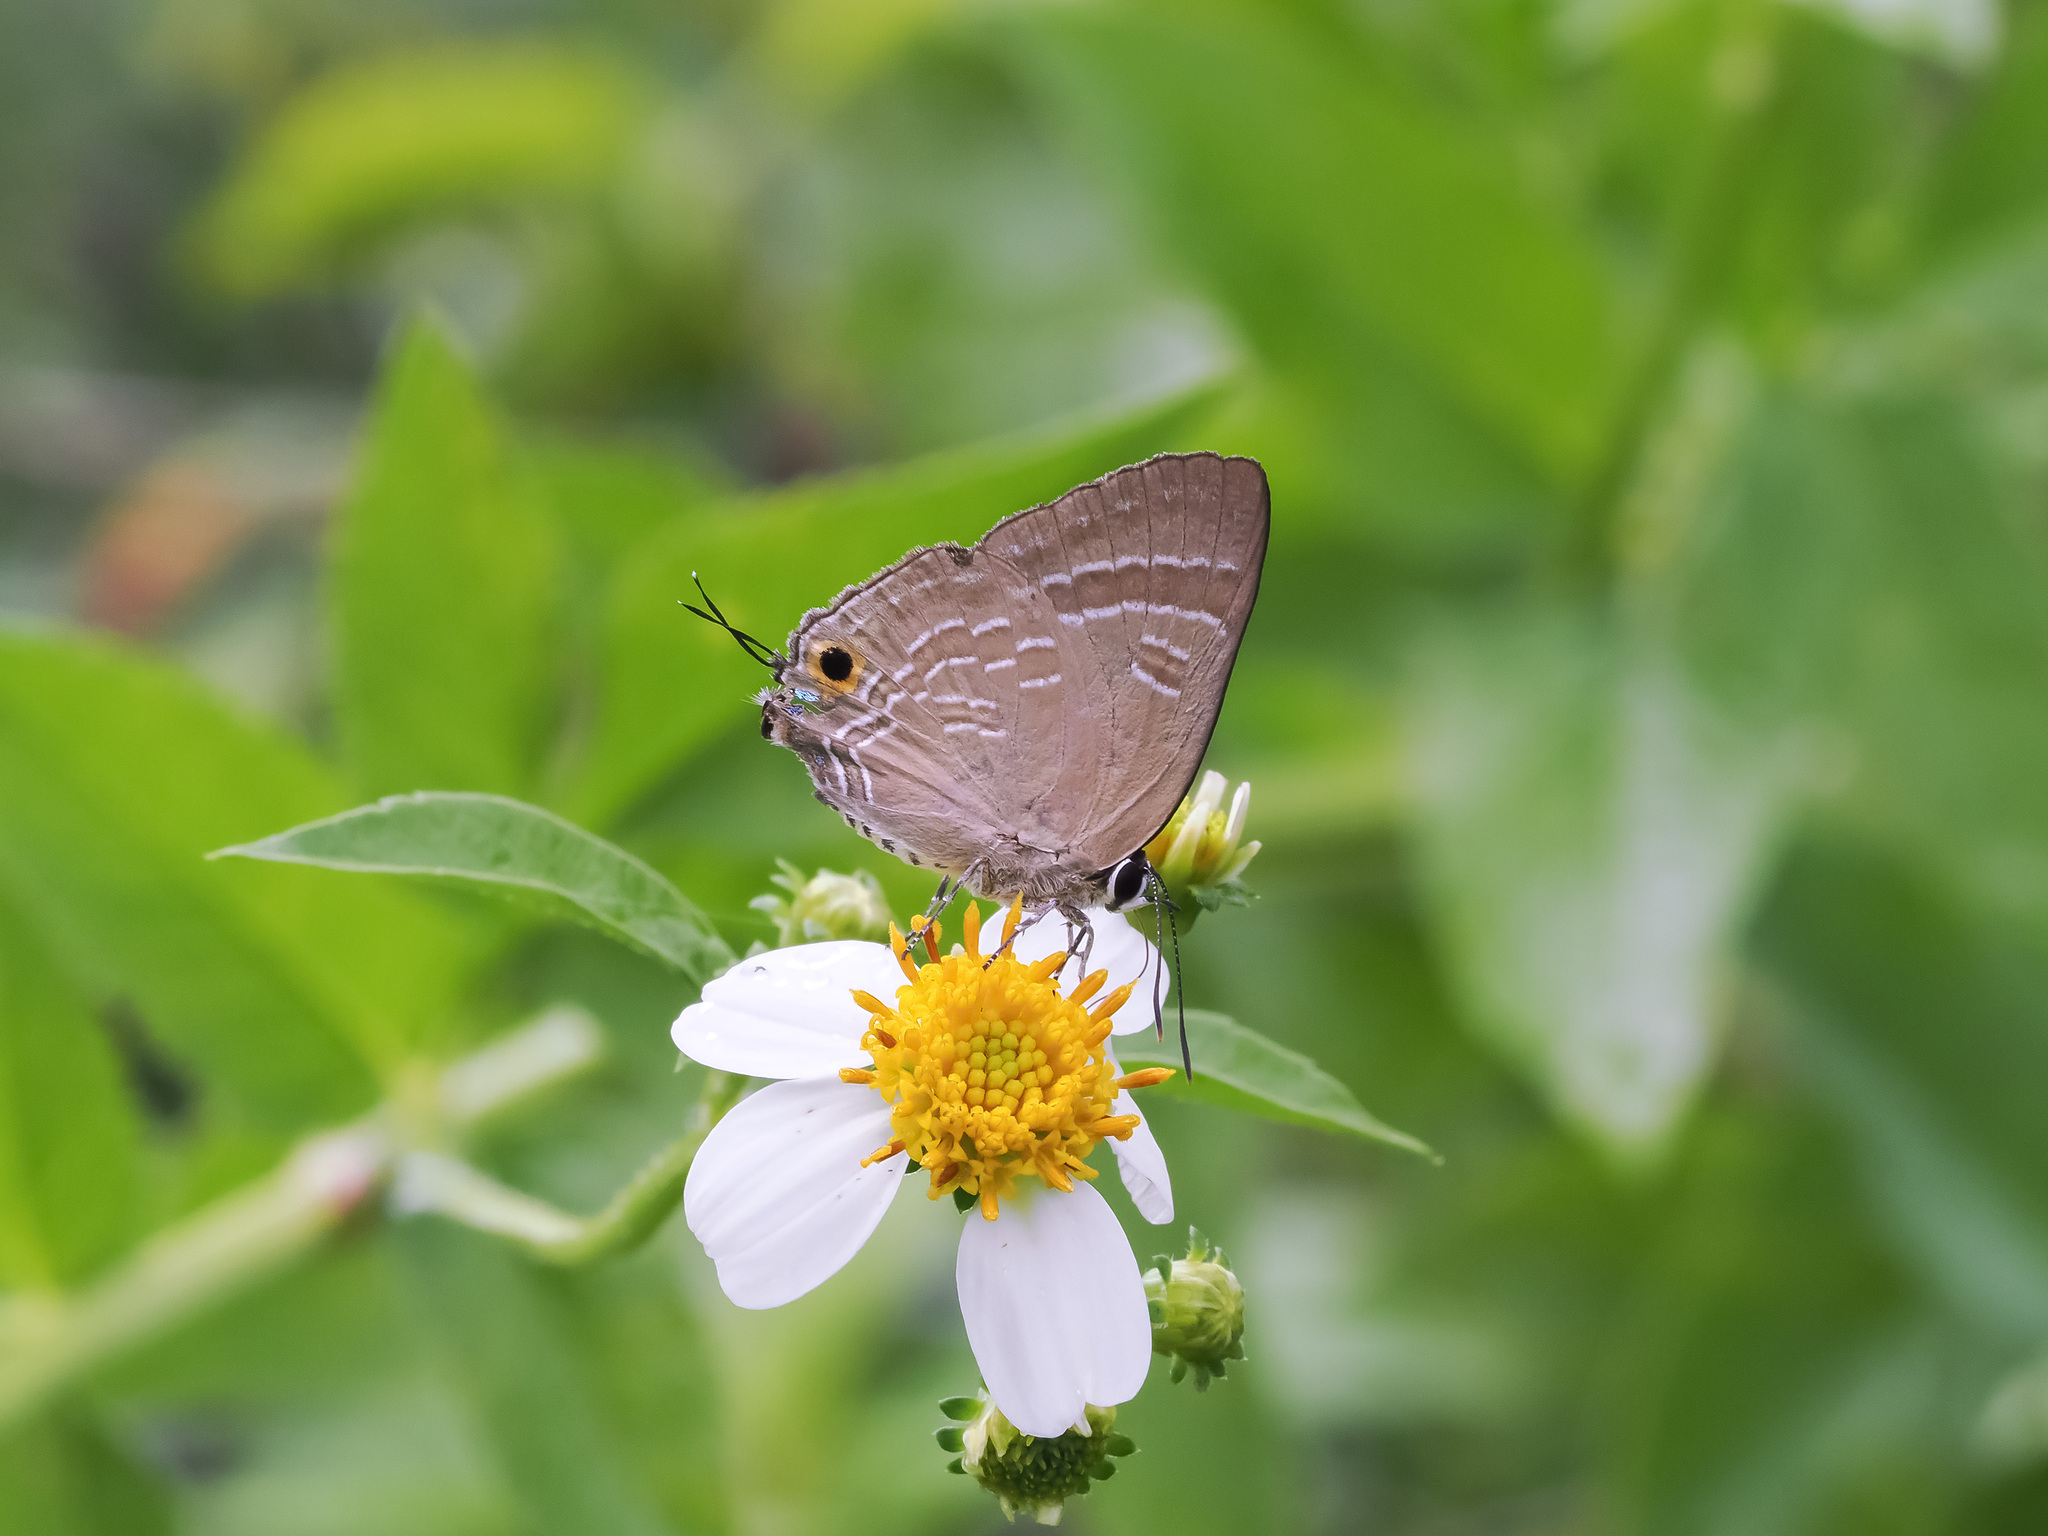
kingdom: Animalia
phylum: Arthropoda
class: Insecta
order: Lepidoptera
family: Lycaenidae
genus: Deudorix
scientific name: Deudorix epijarbas
